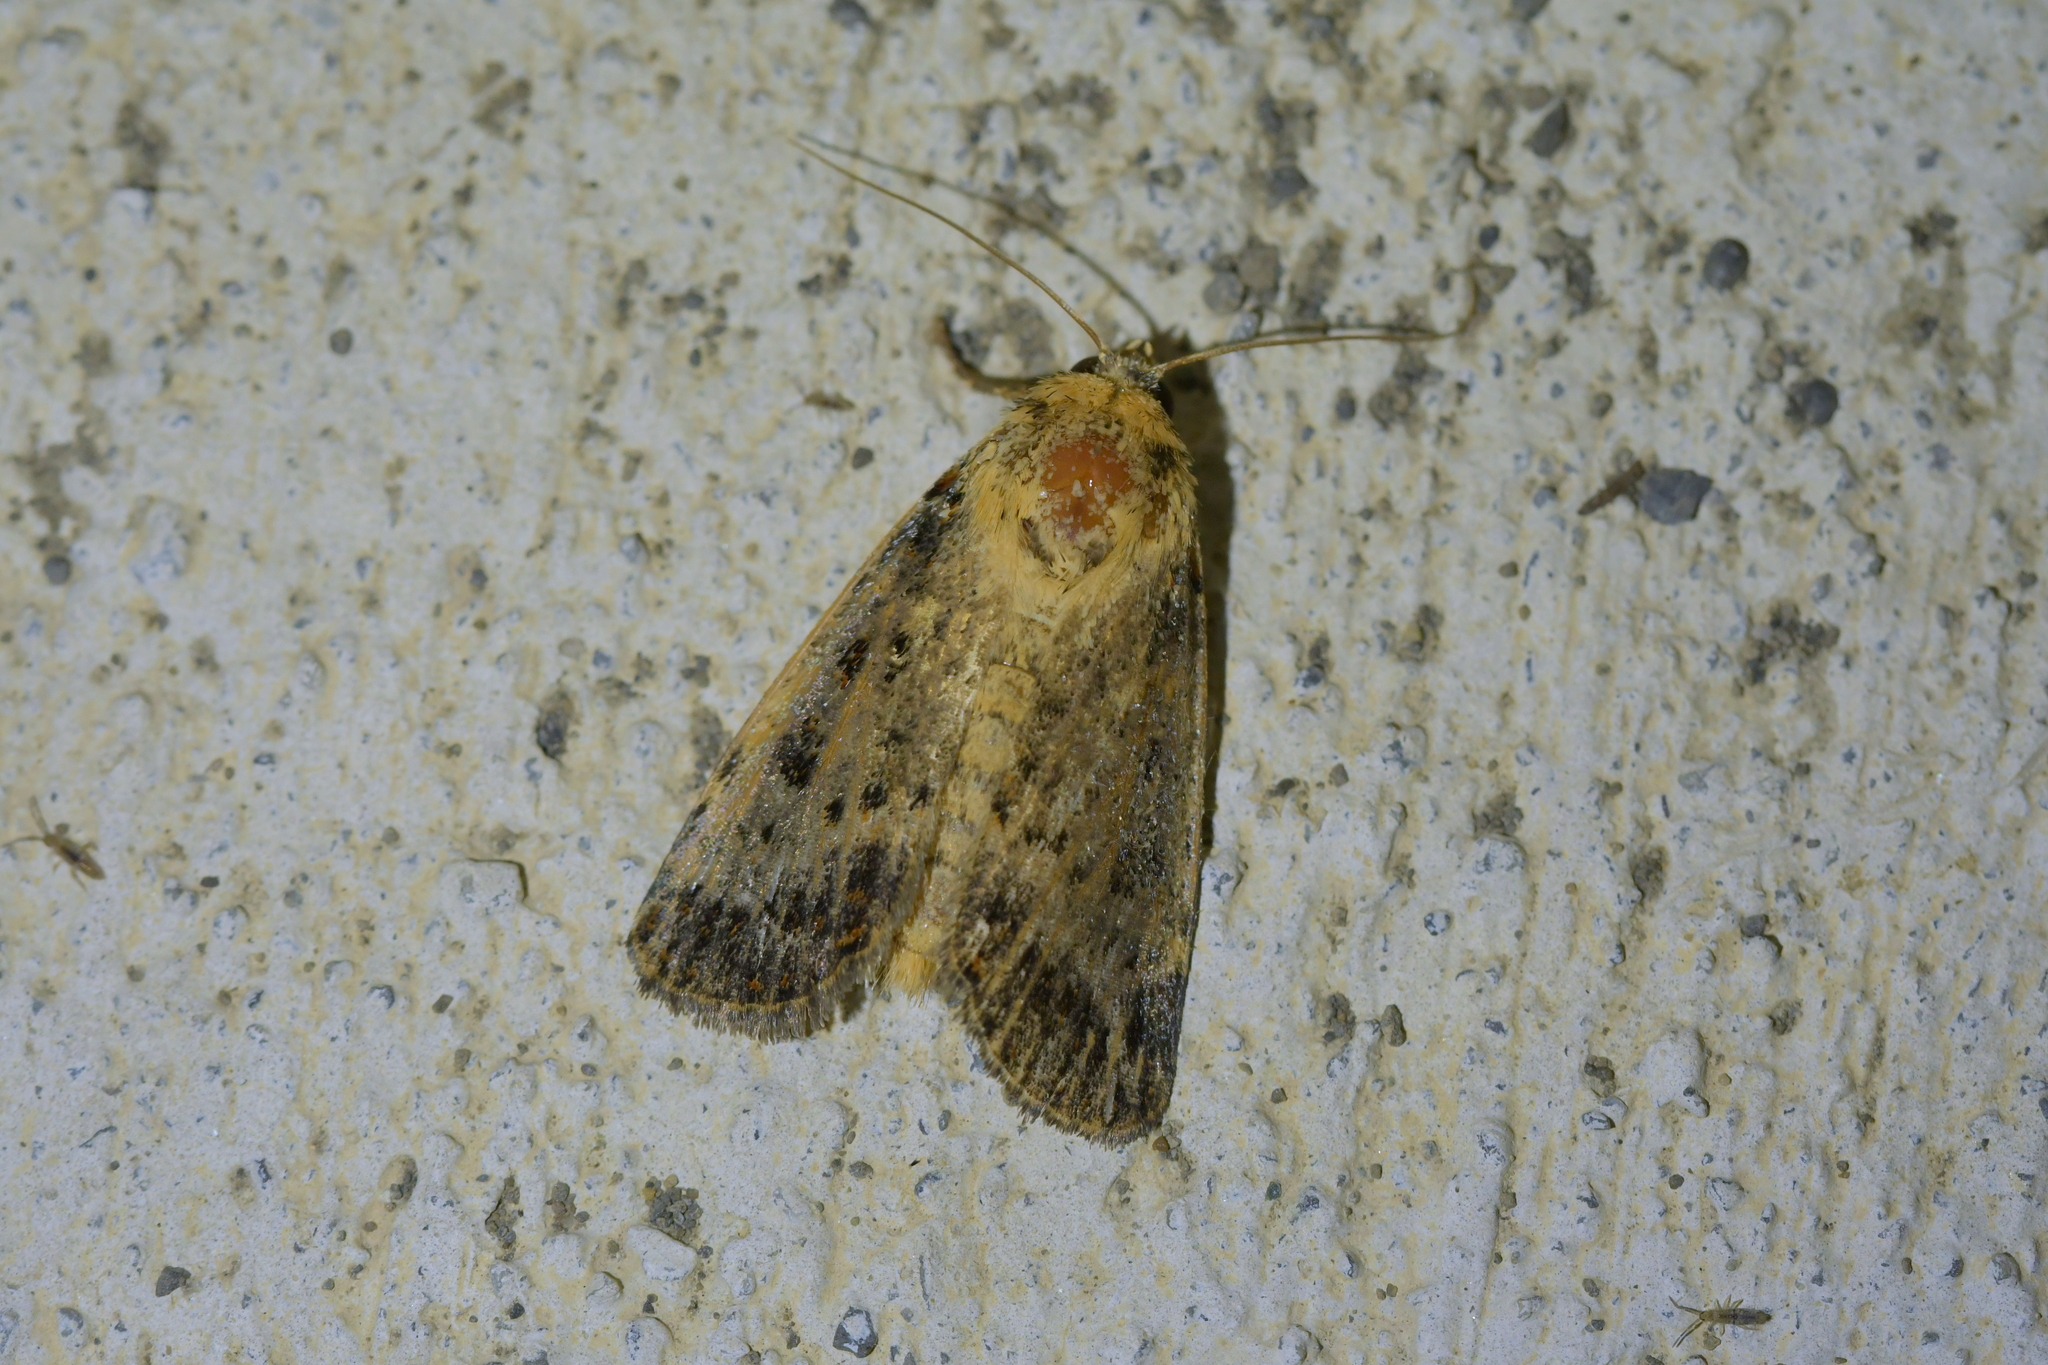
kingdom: Animalia
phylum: Arthropoda
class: Insecta
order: Lepidoptera
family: Noctuidae
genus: Proteuxoa
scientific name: Proteuxoa sanguinipuncta
